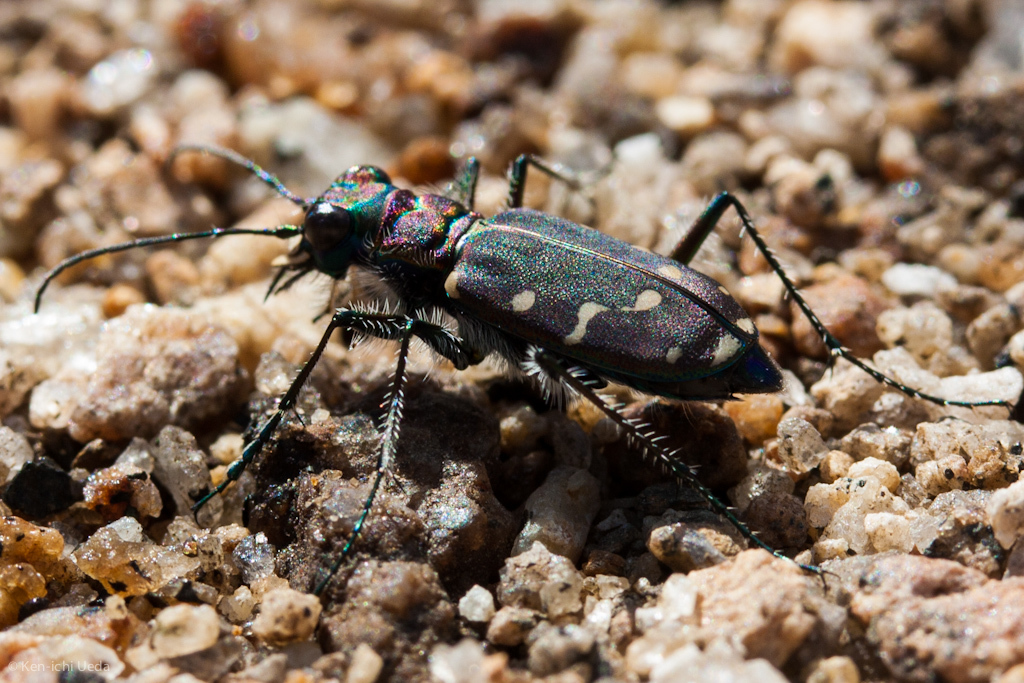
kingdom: Animalia
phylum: Arthropoda
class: Insecta
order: Coleoptera
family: Carabidae
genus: Cicindela
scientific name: Cicindela oregona
